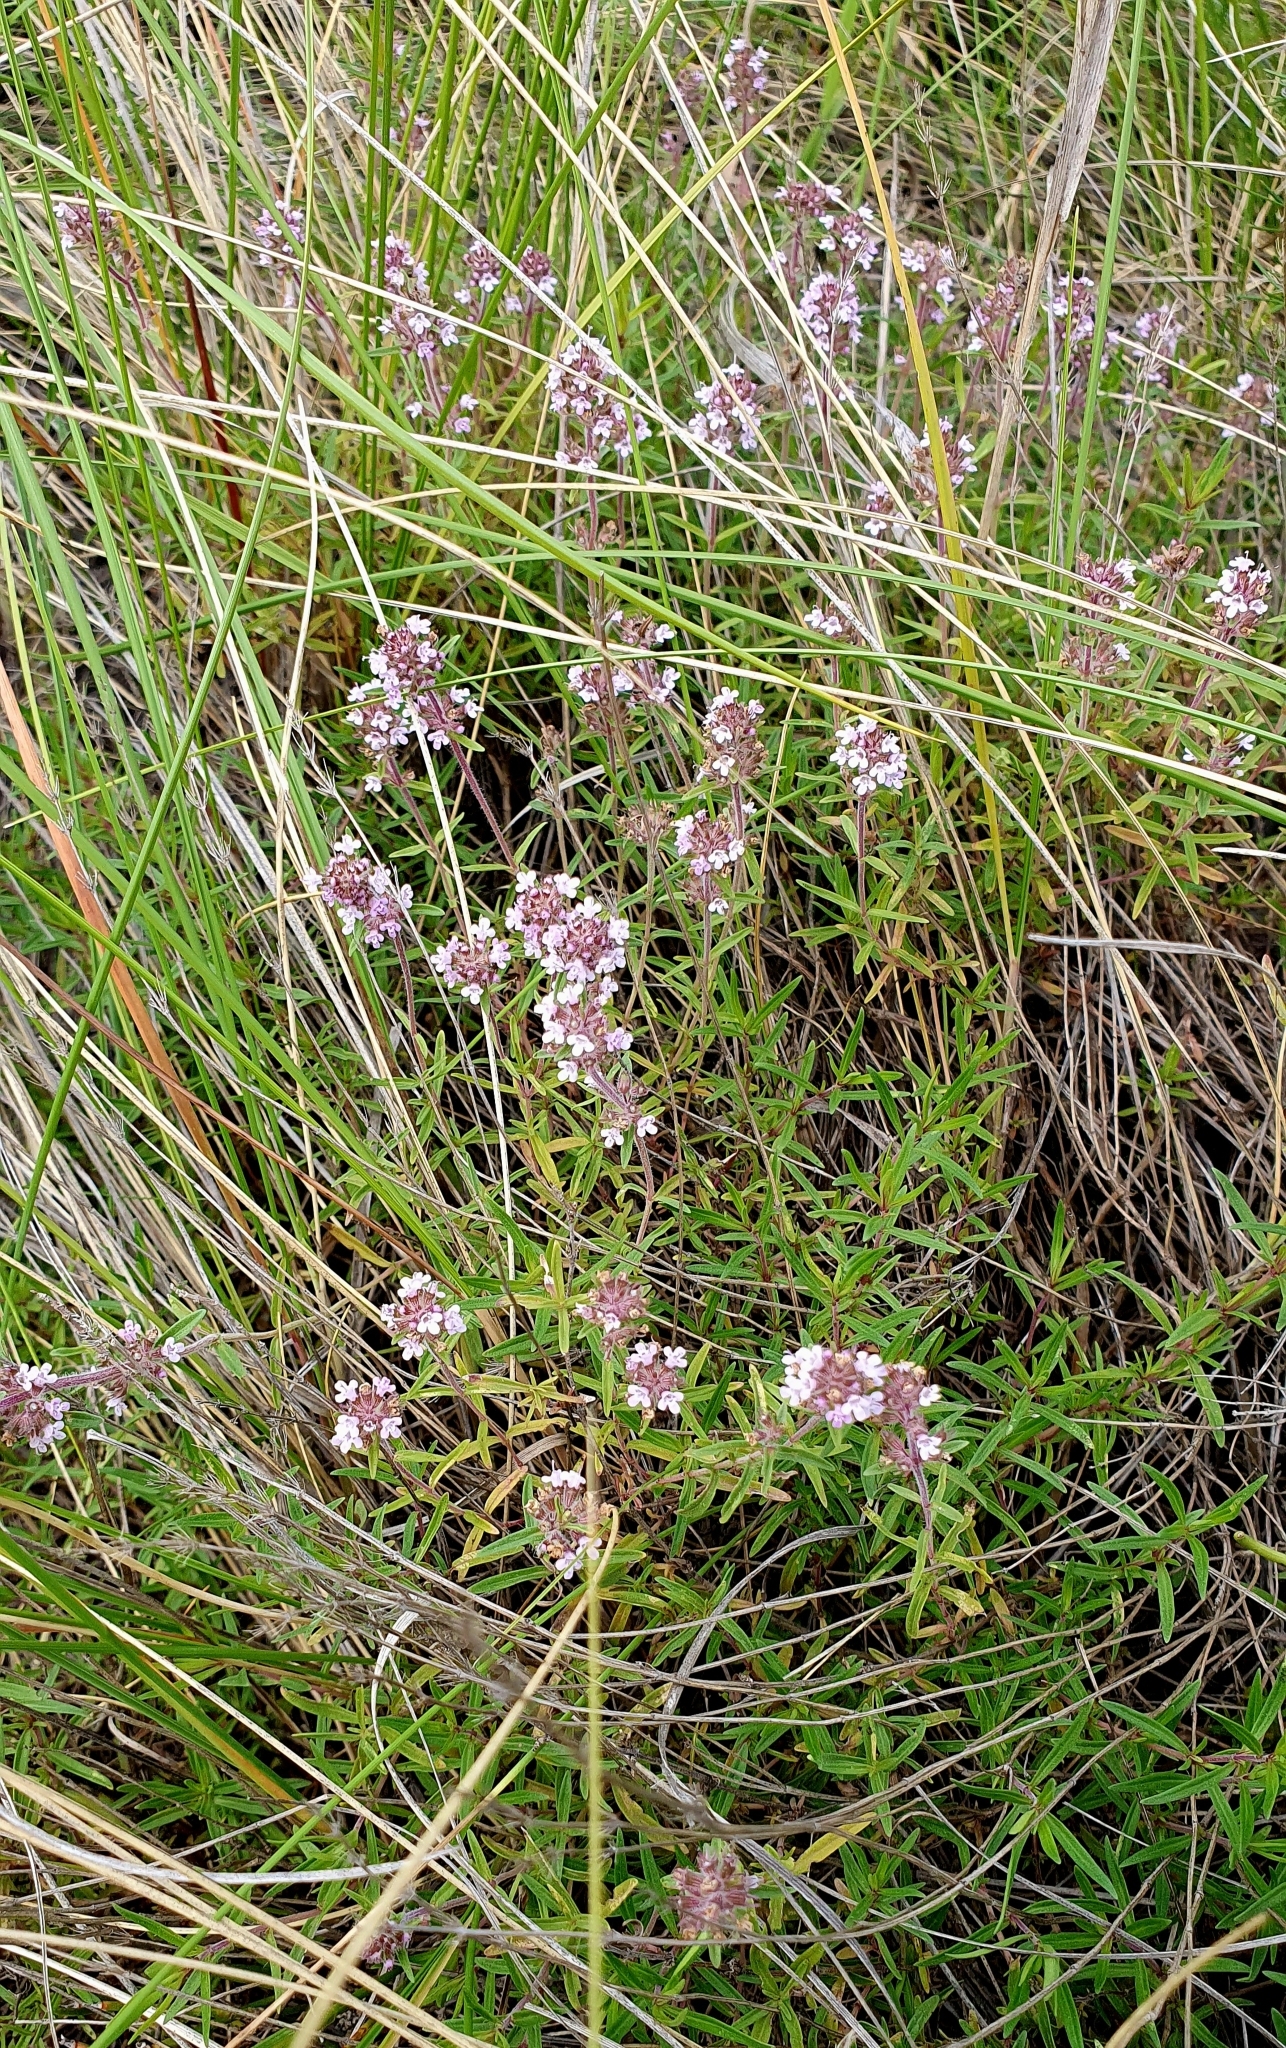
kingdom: Plantae
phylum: Tracheophyta
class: Magnoliopsida
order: Lamiales
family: Lamiaceae
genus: Thymus
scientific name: Thymus pannonicus
